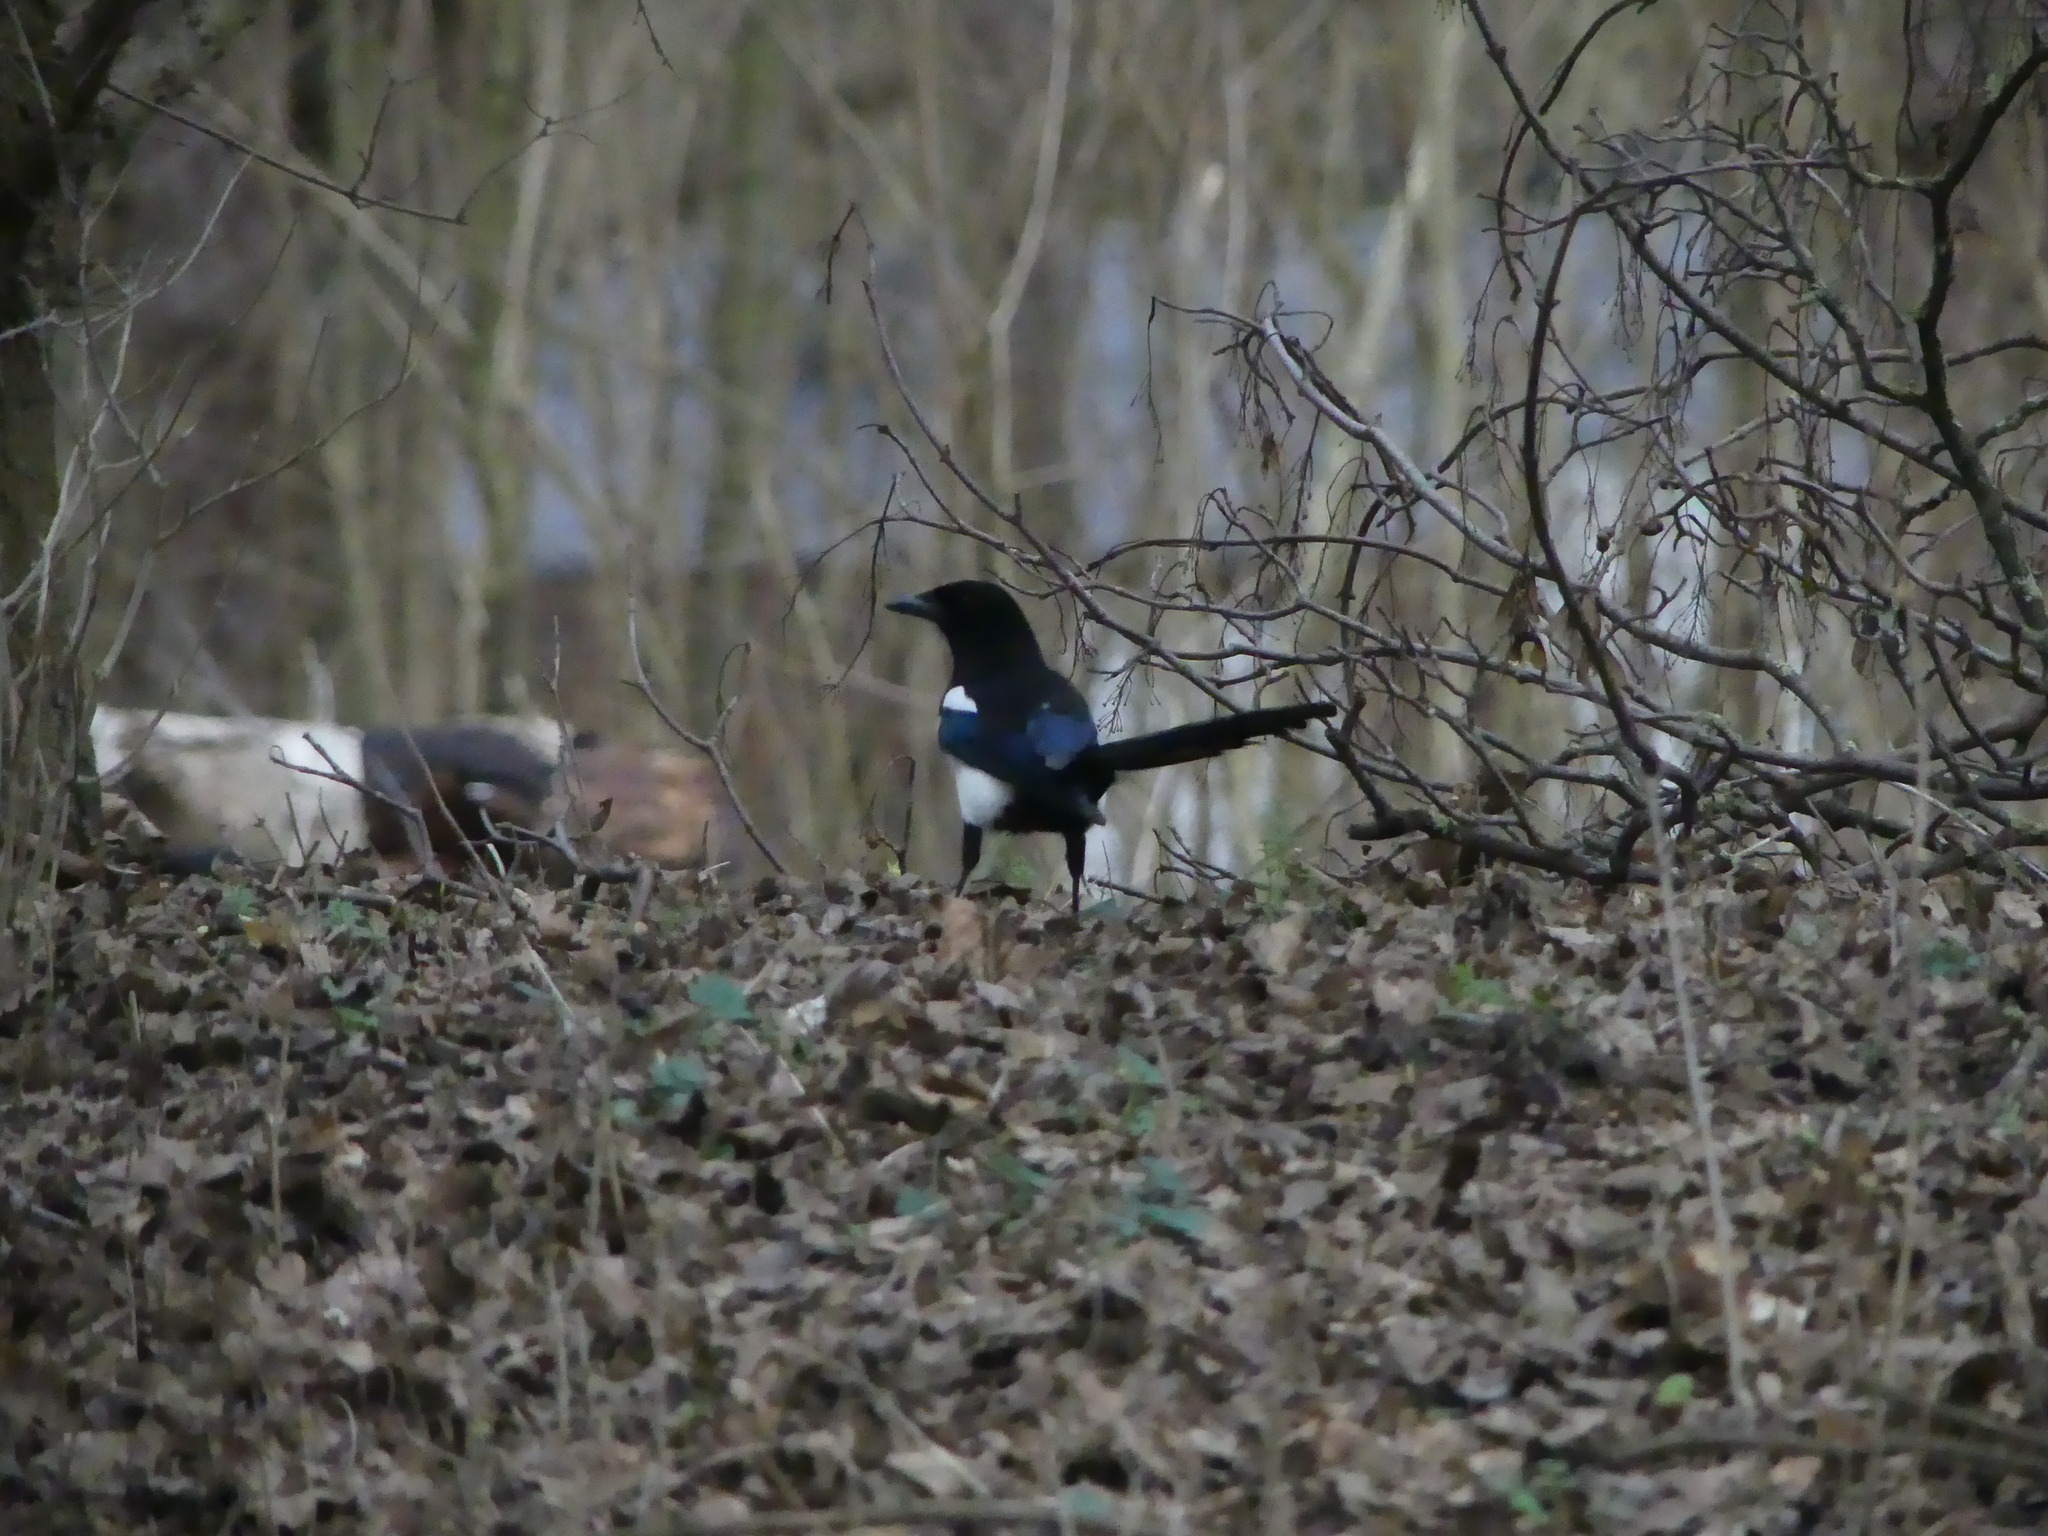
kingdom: Animalia
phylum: Chordata
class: Aves
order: Passeriformes
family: Corvidae
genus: Pica
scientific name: Pica pica
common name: Eurasian magpie
